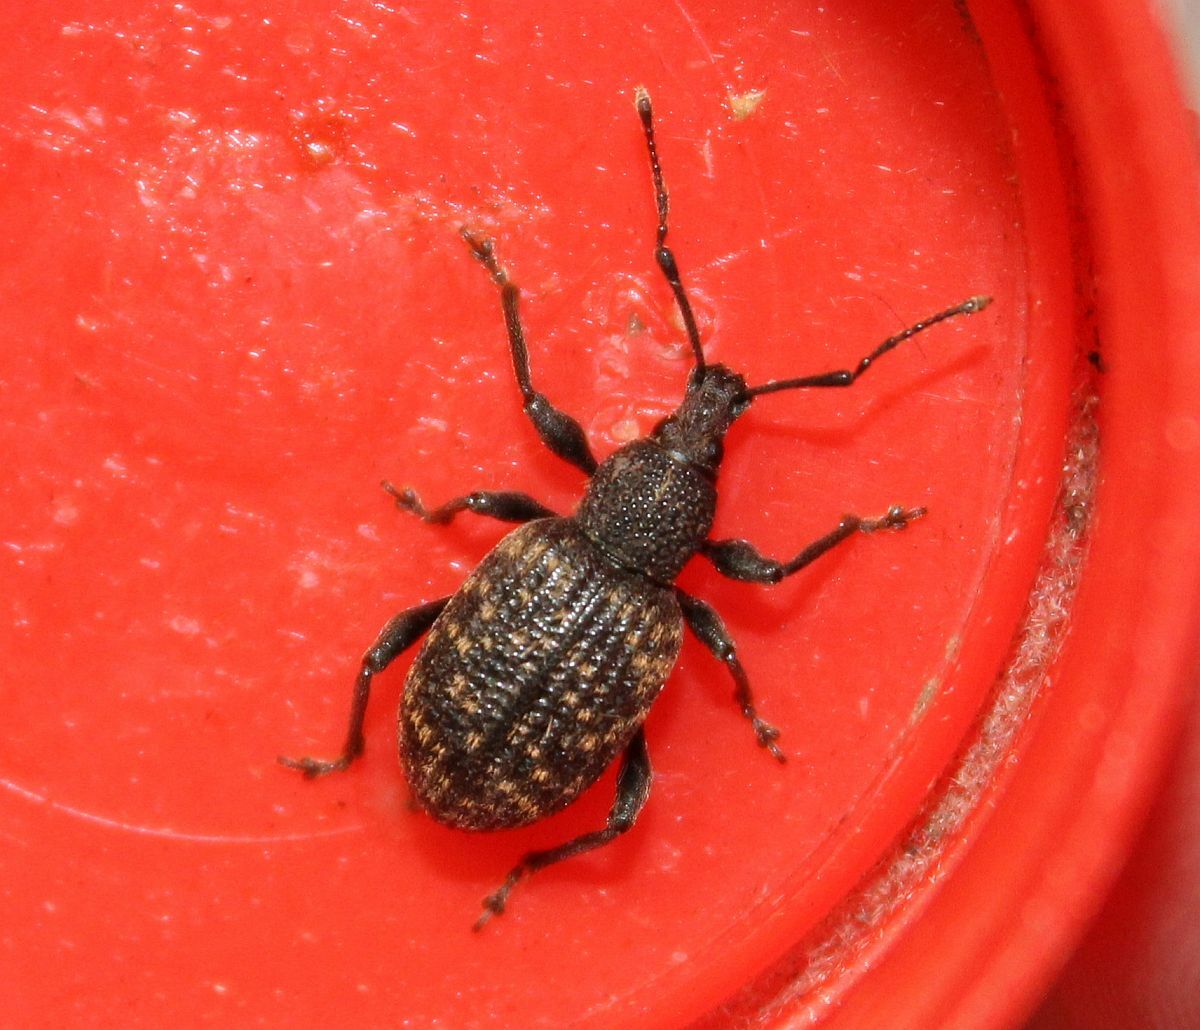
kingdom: Animalia
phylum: Arthropoda
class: Insecta
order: Coleoptera
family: Curculionidae
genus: Otiorhynchus
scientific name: Otiorhynchus sulcatus
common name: Black vine weevil
